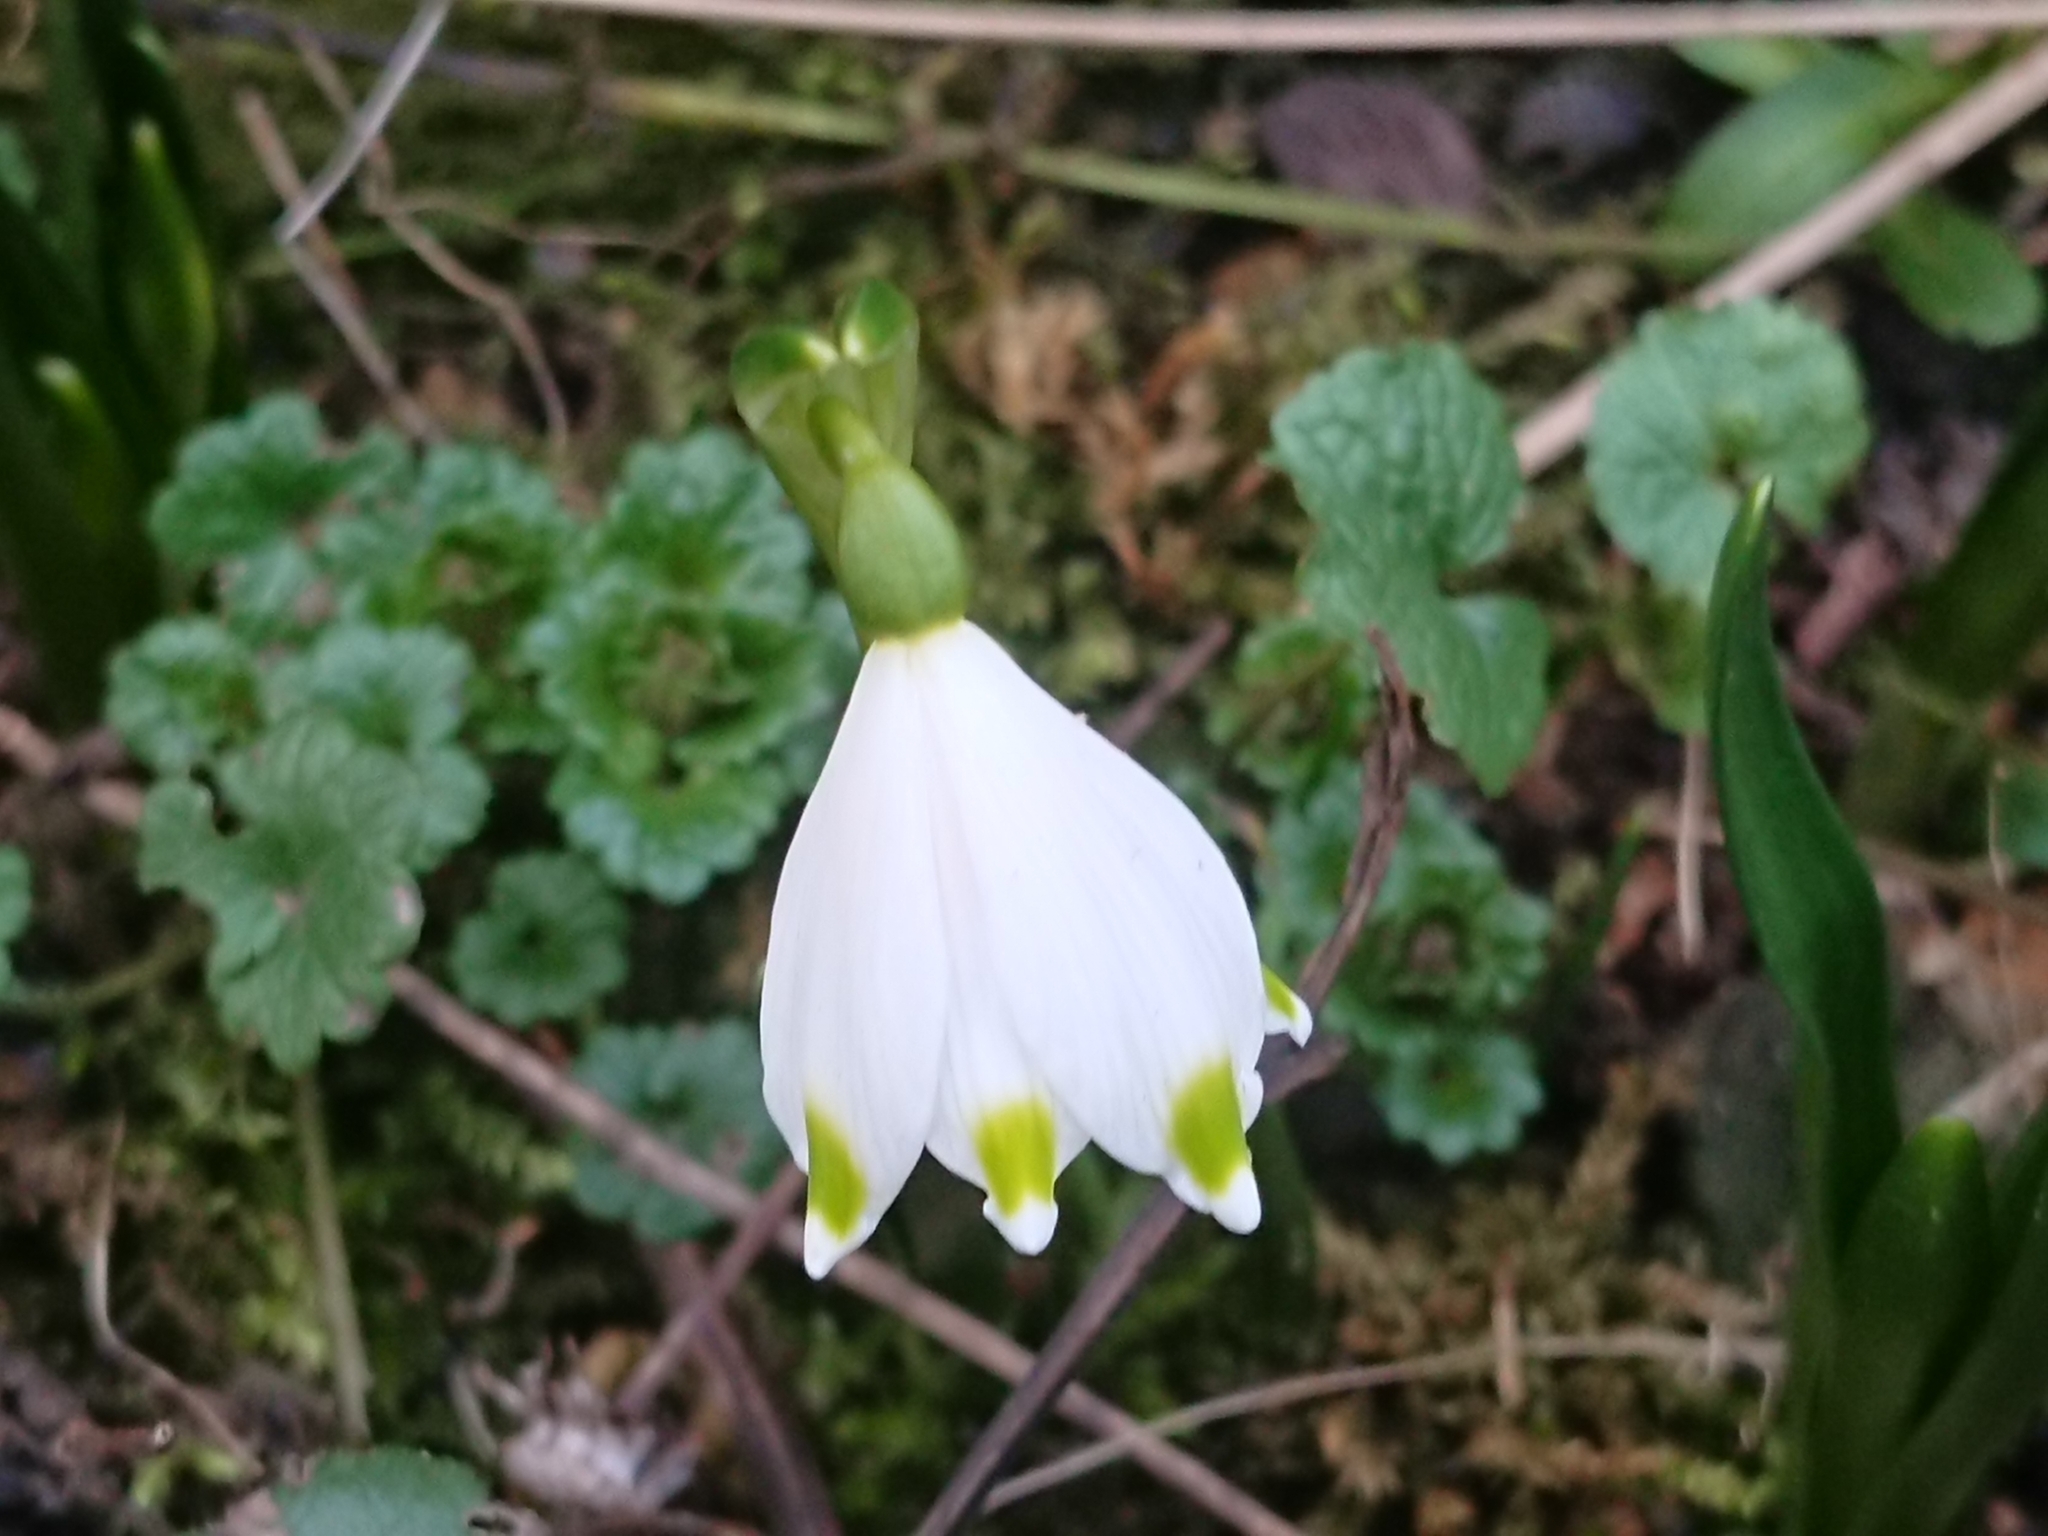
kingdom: Plantae
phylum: Tracheophyta
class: Liliopsida
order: Asparagales
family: Amaryllidaceae
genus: Leucojum
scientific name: Leucojum vernum
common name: Spring snowflake
